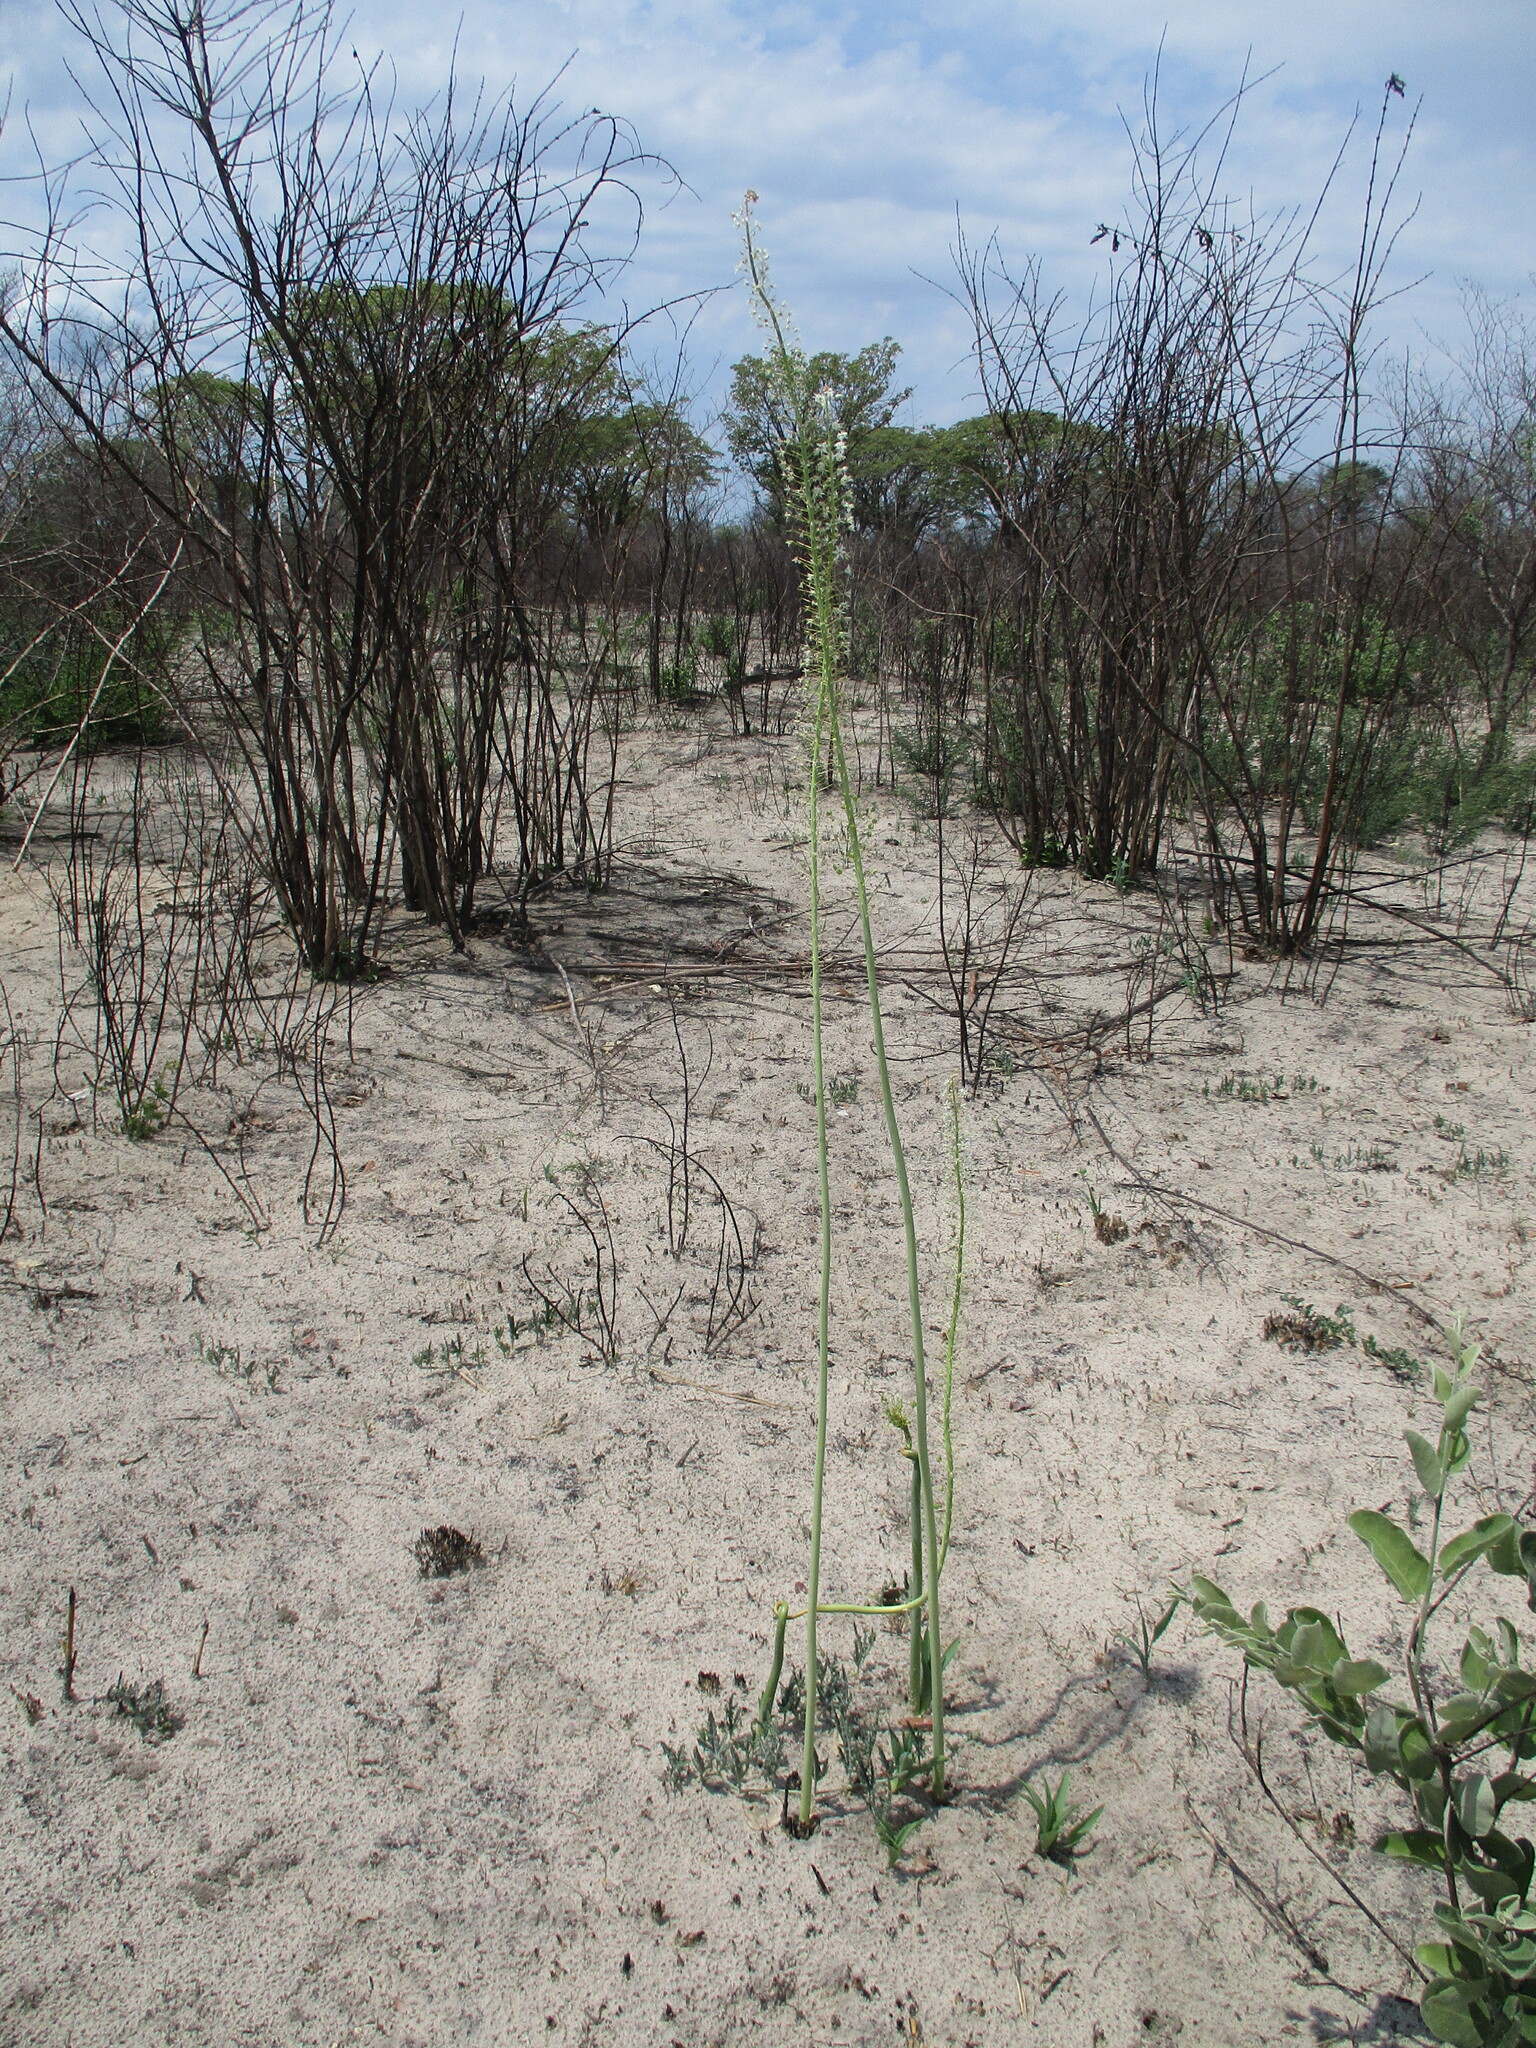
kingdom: Plantae
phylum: Tracheophyta
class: Liliopsida
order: Asparagales
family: Asparagaceae
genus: Drimia
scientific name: Drimia altissima
